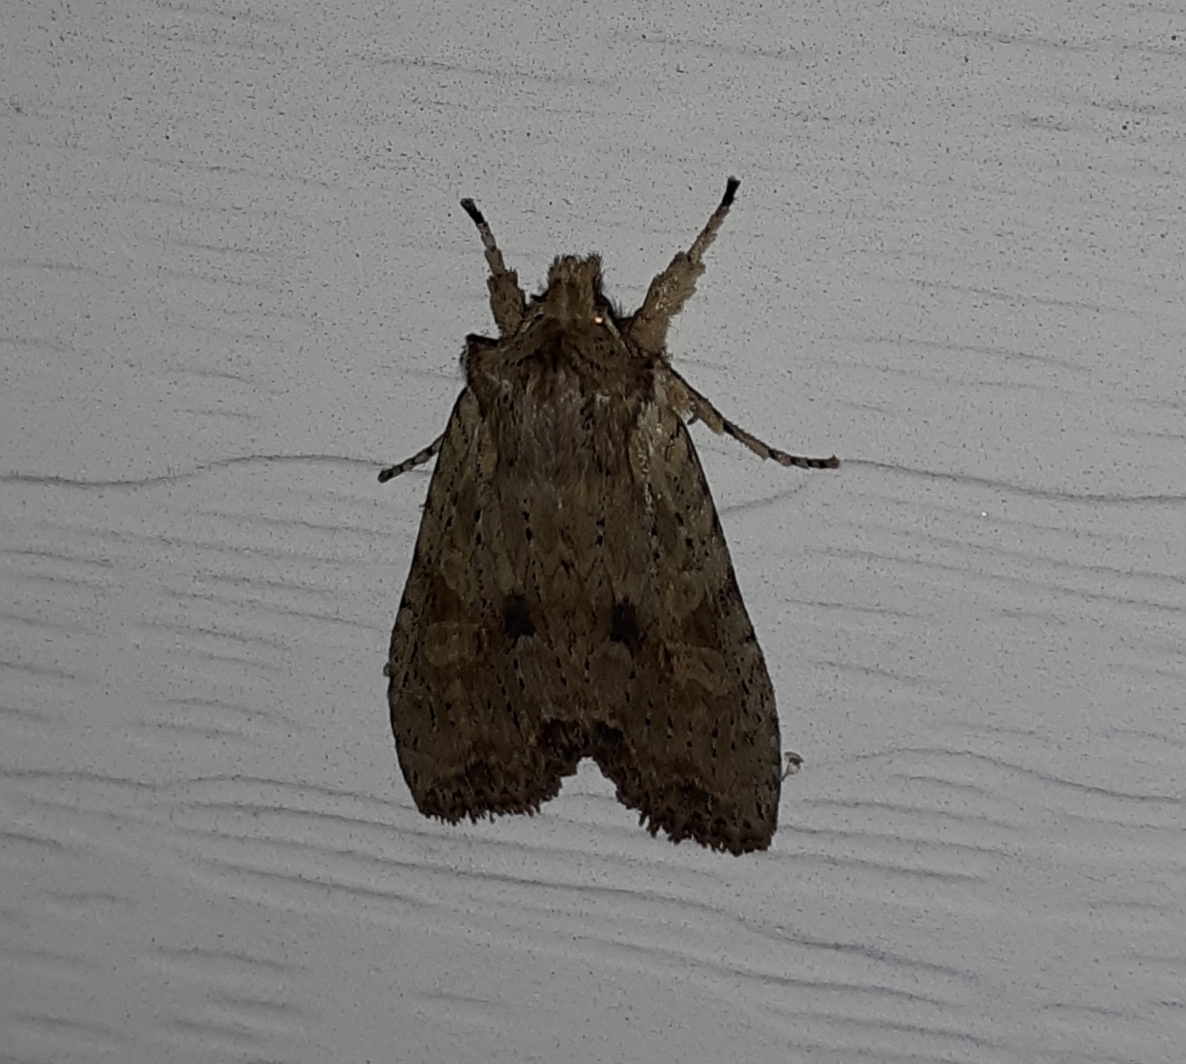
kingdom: Animalia
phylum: Arthropoda
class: Insecta
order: Lepidoptera
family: Noctuidae
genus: Lithophane
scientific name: Lithophane patefacta
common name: Dimorphic pinion moth
